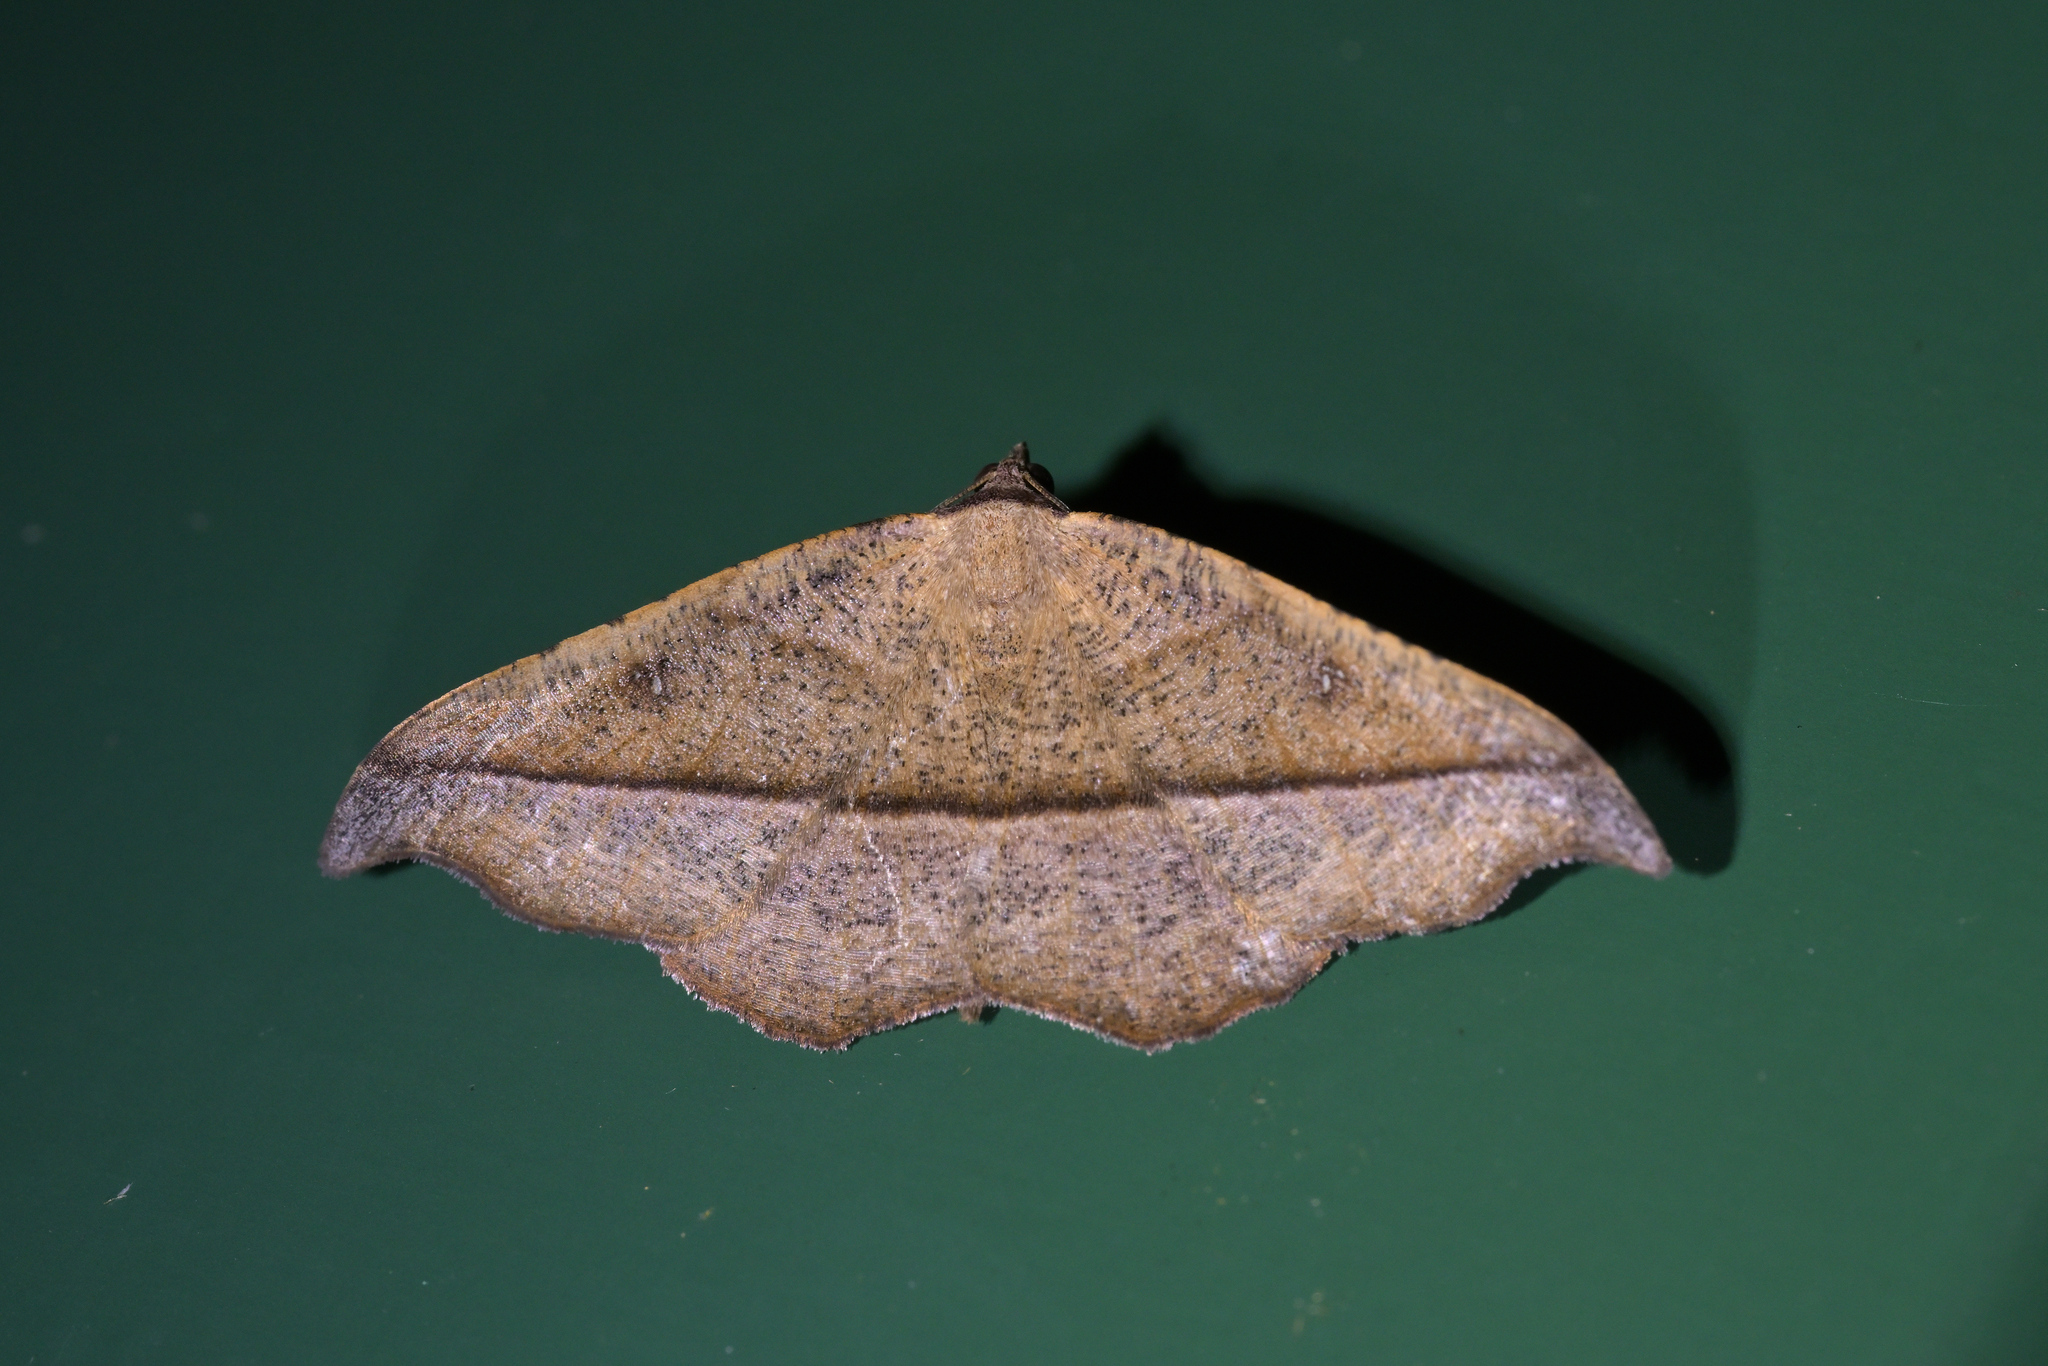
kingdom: Animalia
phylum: Arthropoda
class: Insecta
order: Lepidoptera
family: Geometridae
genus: Sarisa
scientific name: Sarisa muriferata
